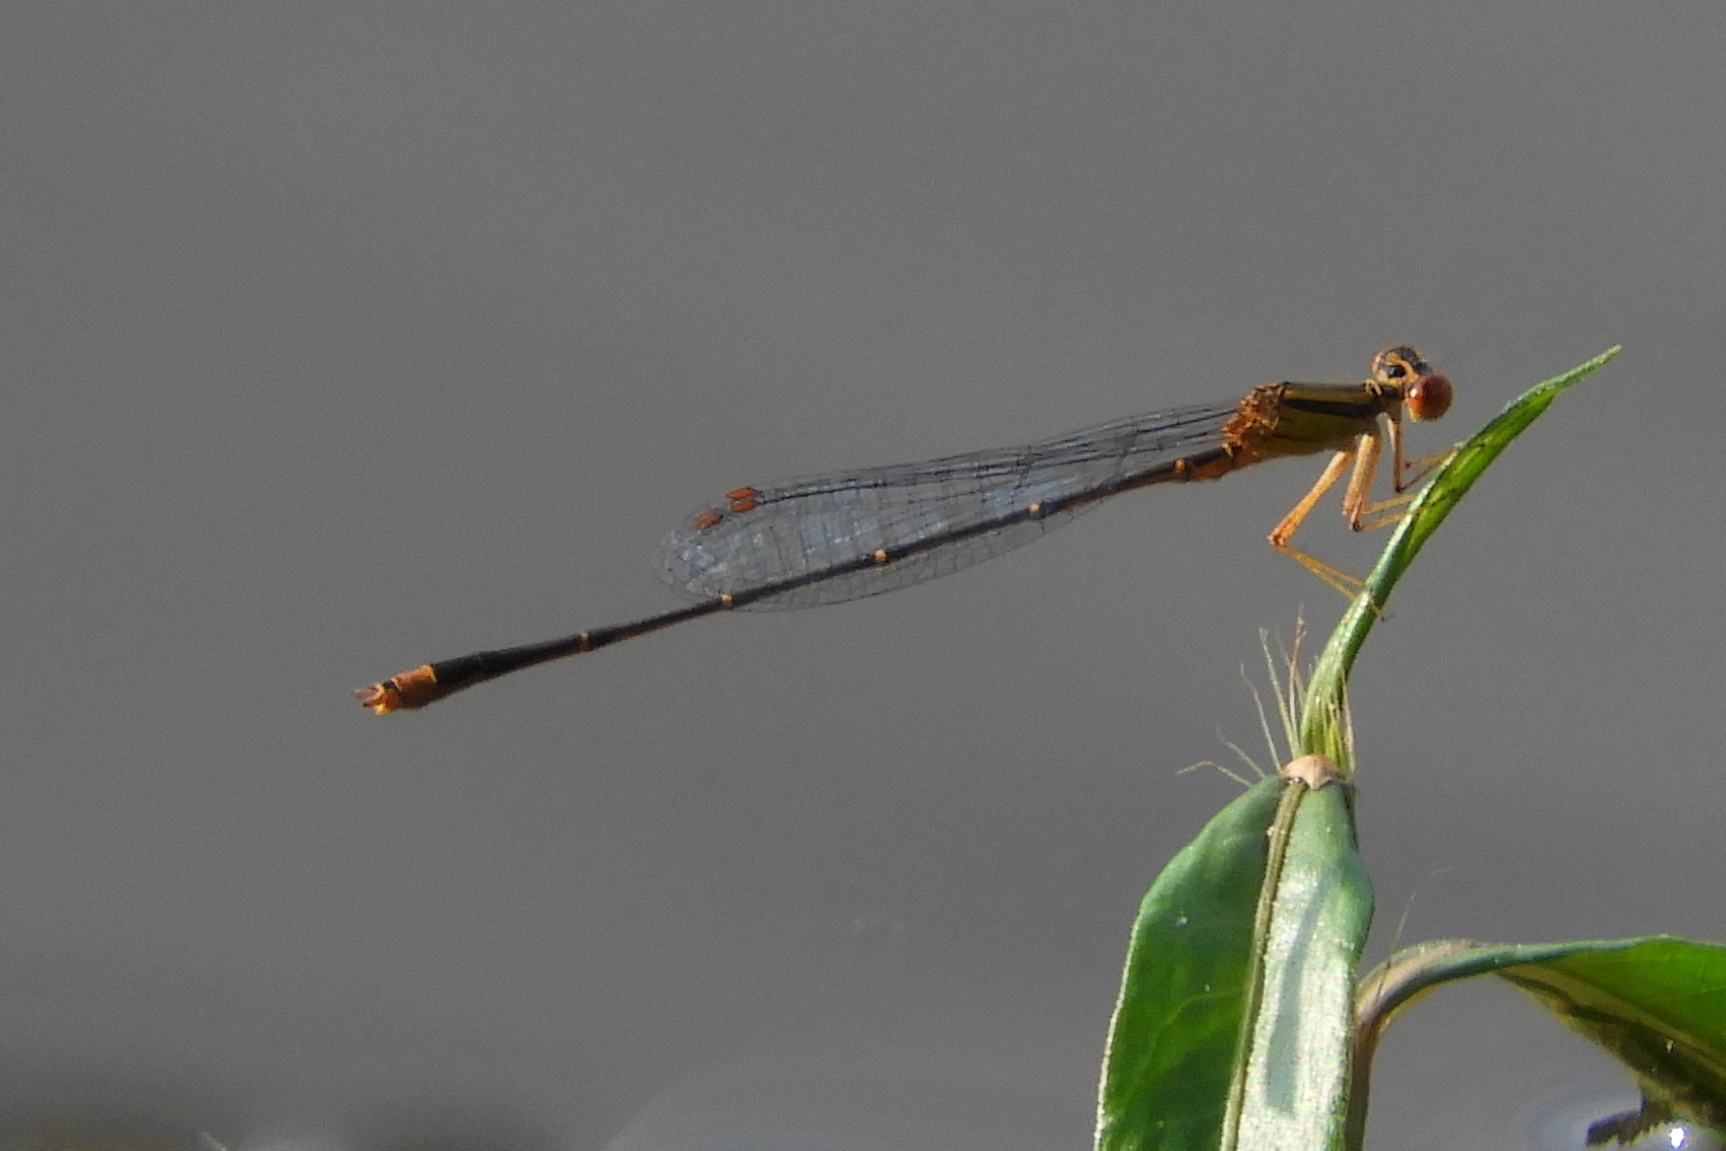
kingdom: Animalia
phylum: Arthropoda
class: Insecta
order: Odonata
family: Coenagrionidae
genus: Enallagma
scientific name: Enallagma signatum
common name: Orange bluet
